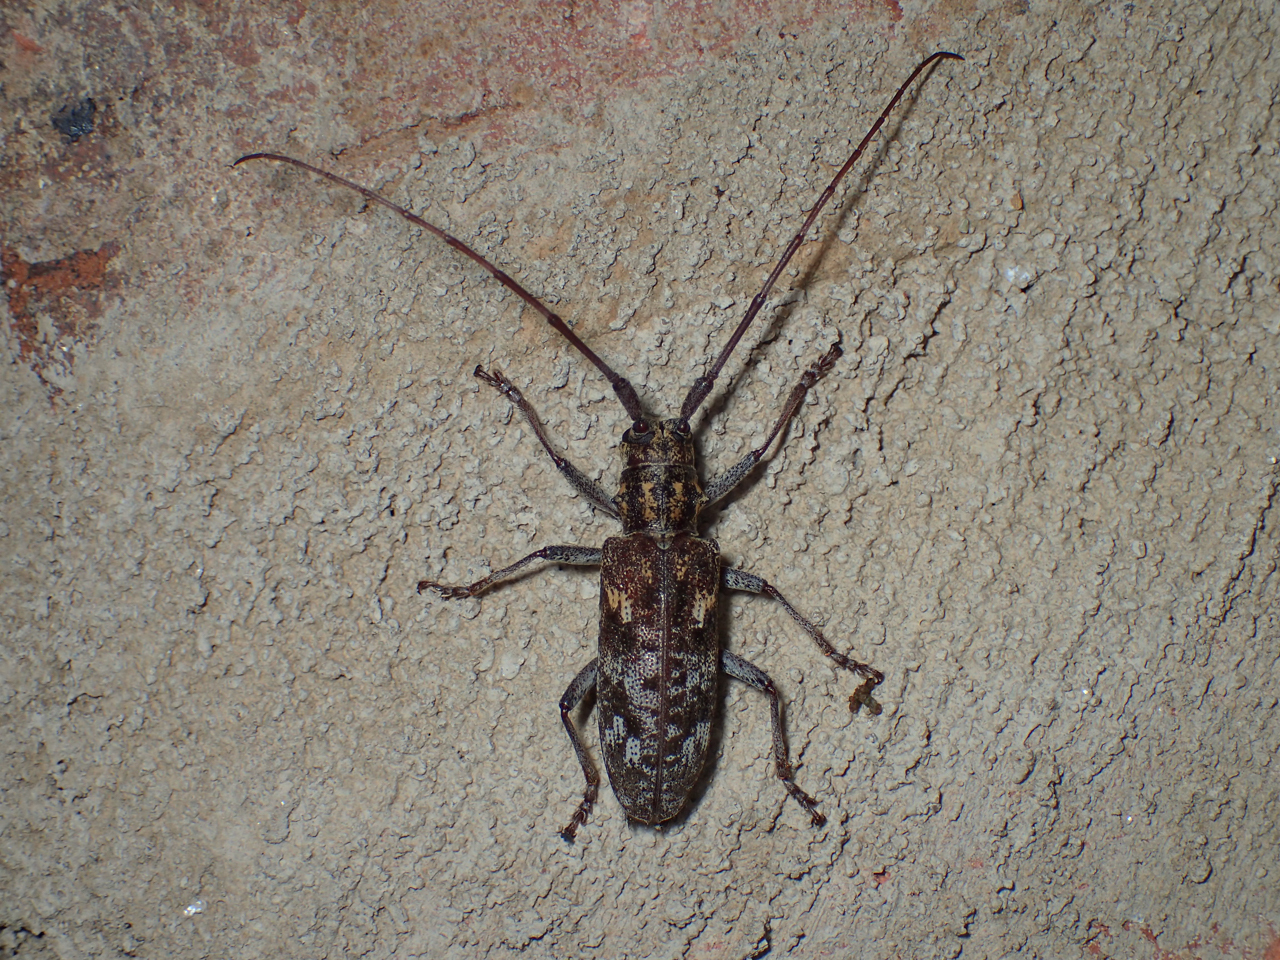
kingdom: Animalia
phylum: Arthropoda
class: Insecta
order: Coleoptera
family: Cerambycidae
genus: Monochamus
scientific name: Monochamus carolinensis
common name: Carolina pine sawyer
